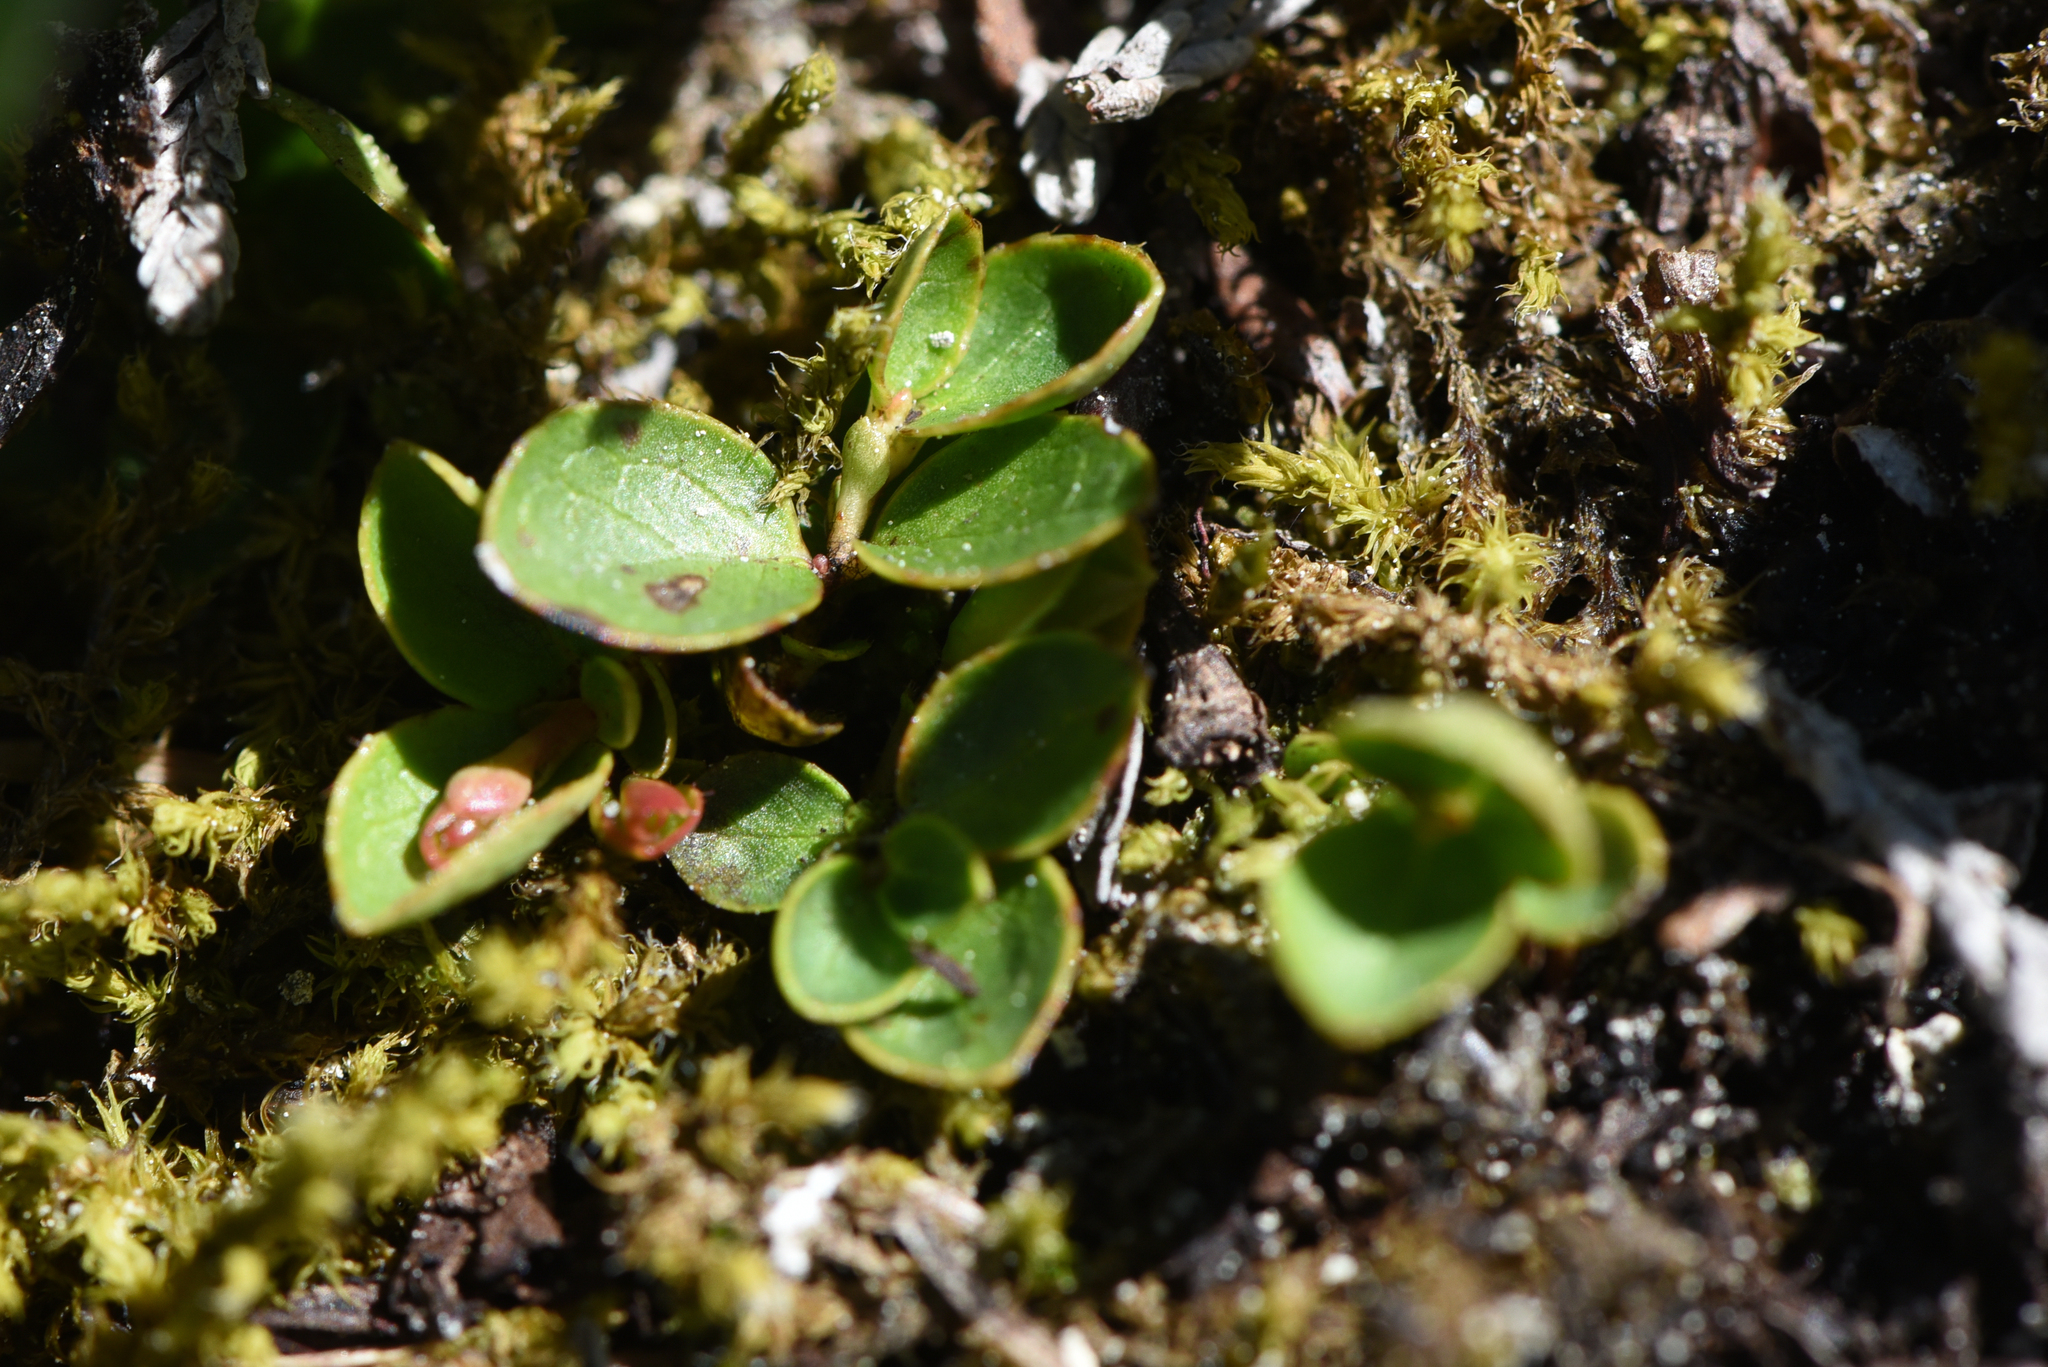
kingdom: Plantae
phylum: Tracheophyta
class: Magnoliopsida
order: Ericales
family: Ericaceae
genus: Gaultheria
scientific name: Gaultheria humifusa
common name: Alpine wintergreen
